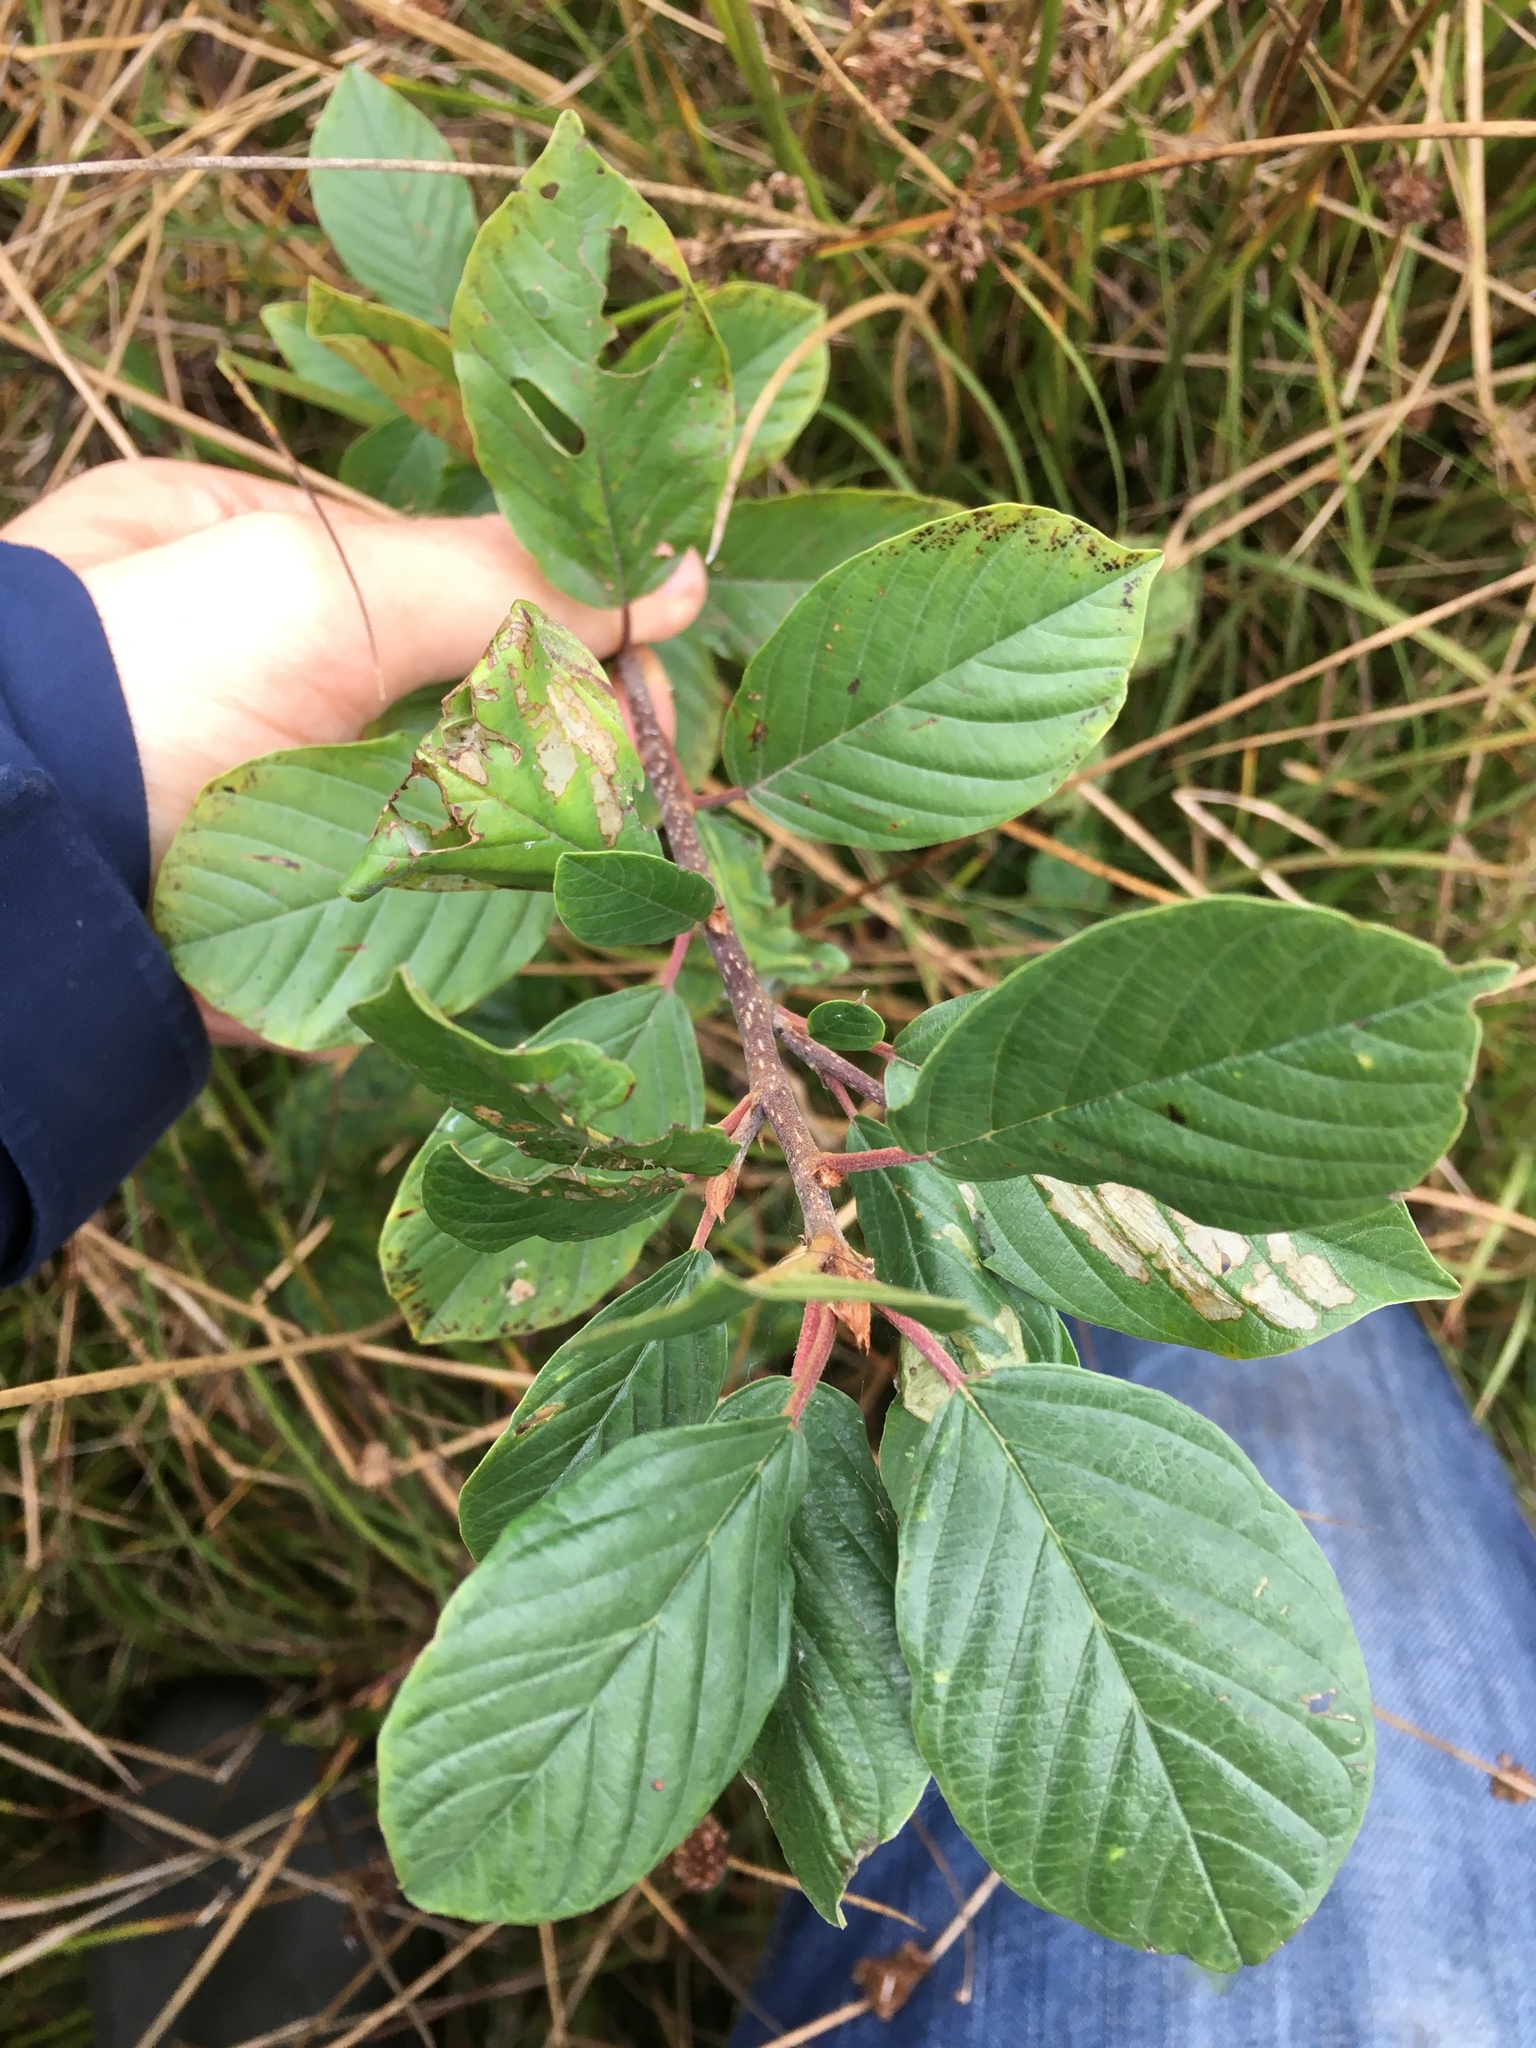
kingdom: Plantae
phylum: Tracheophyta
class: Magnoliopsida
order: Rosales
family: Rhamnaceae
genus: Frangula
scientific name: Frangula alnus
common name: Alder buckthorn
